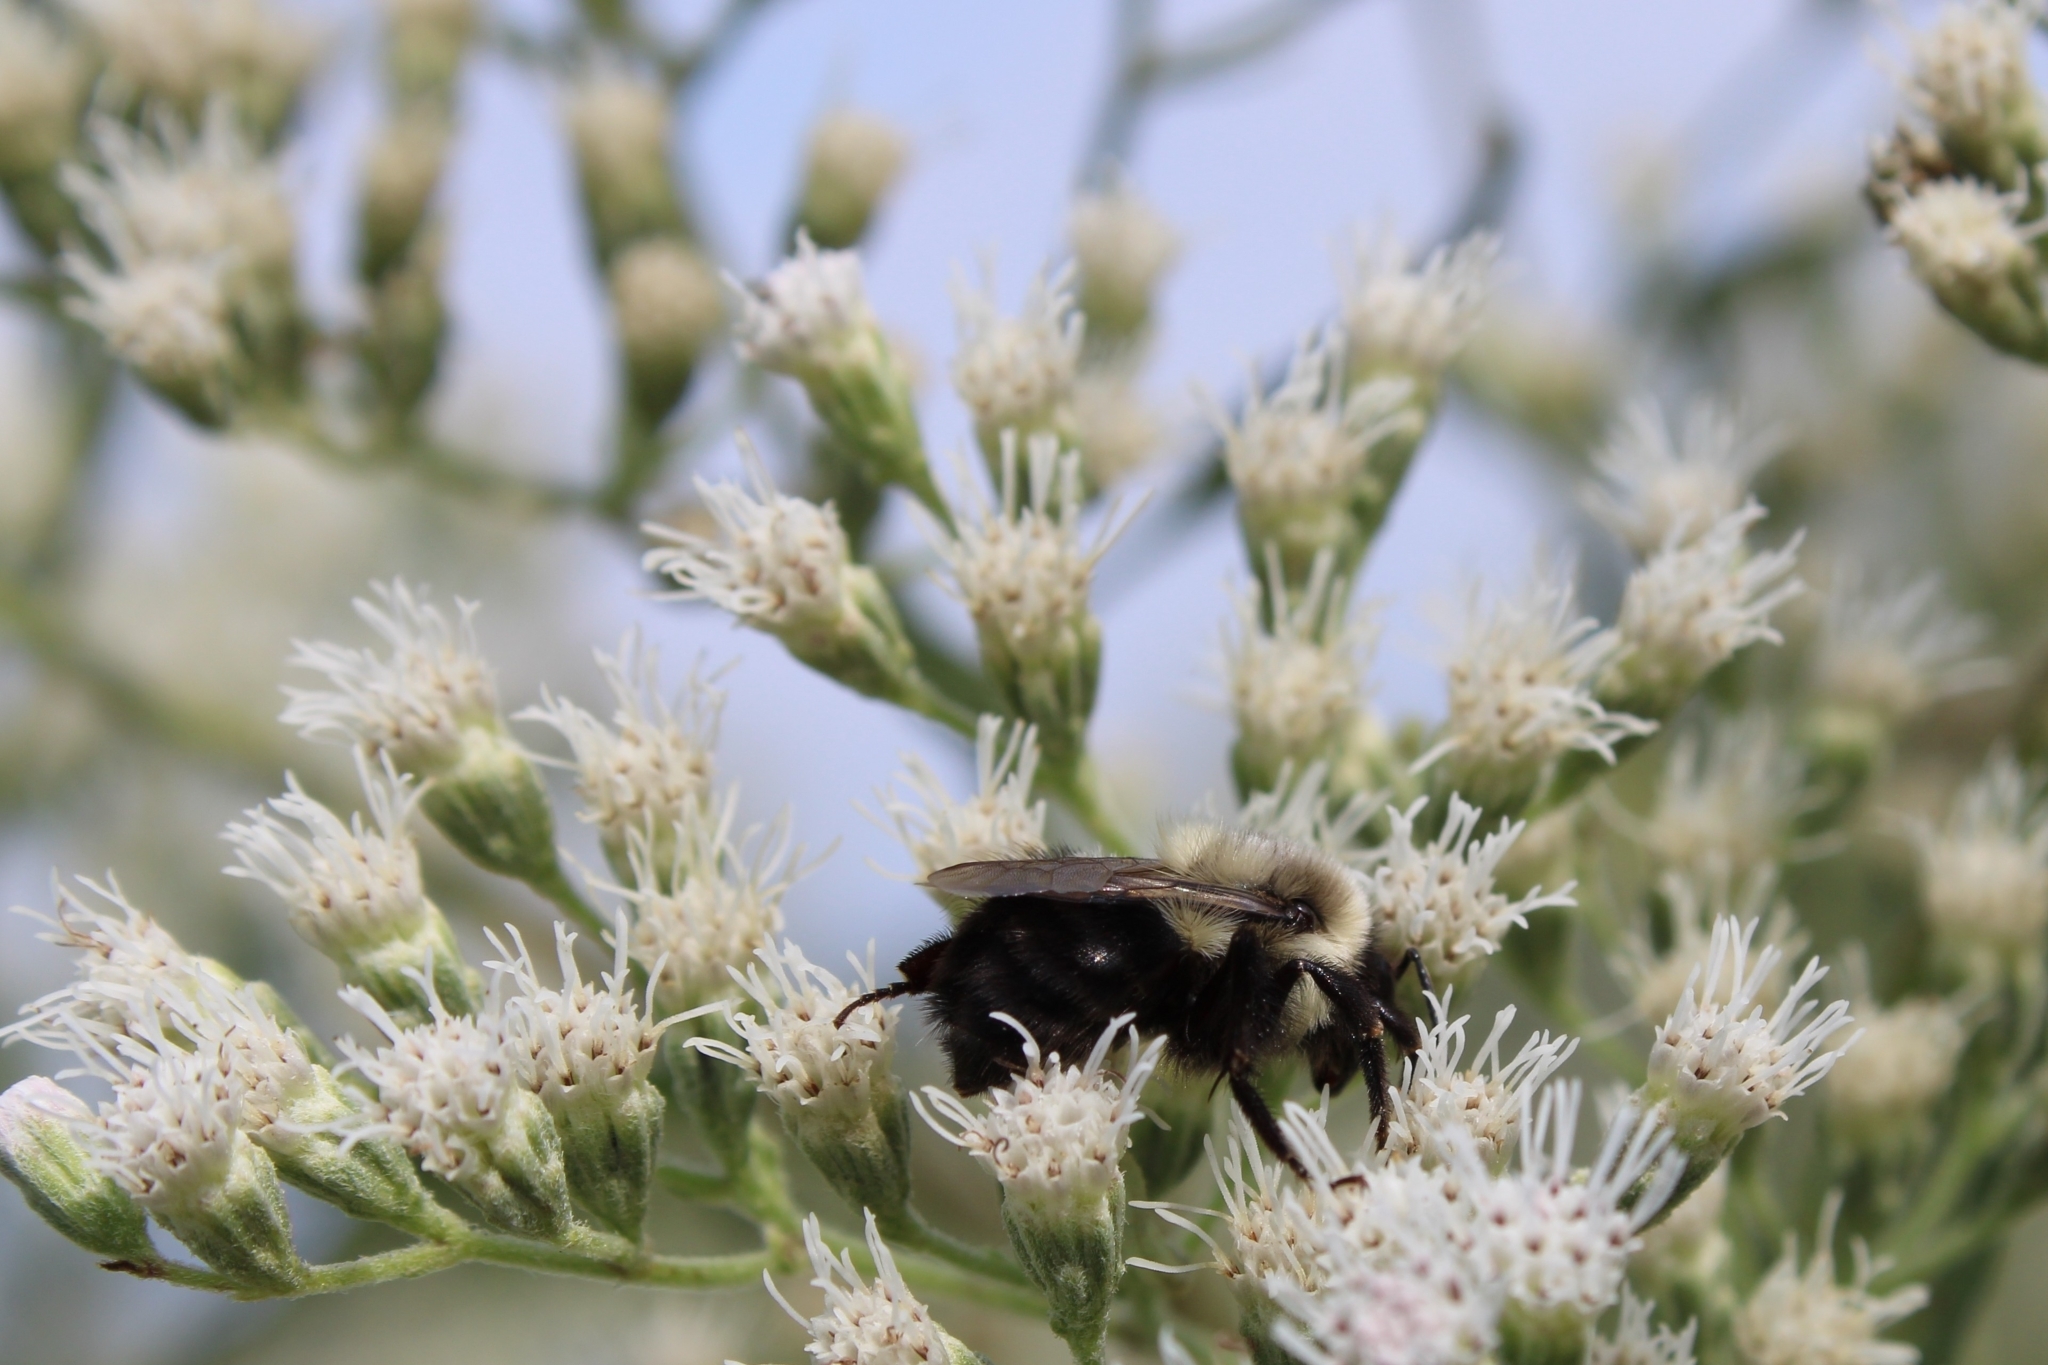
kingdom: Animalia
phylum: Arthropoda
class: Insecta
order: Hymenoptera
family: Apidae
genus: Bombus
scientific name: Bombus impatiens
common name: Common eastern bumble bee
